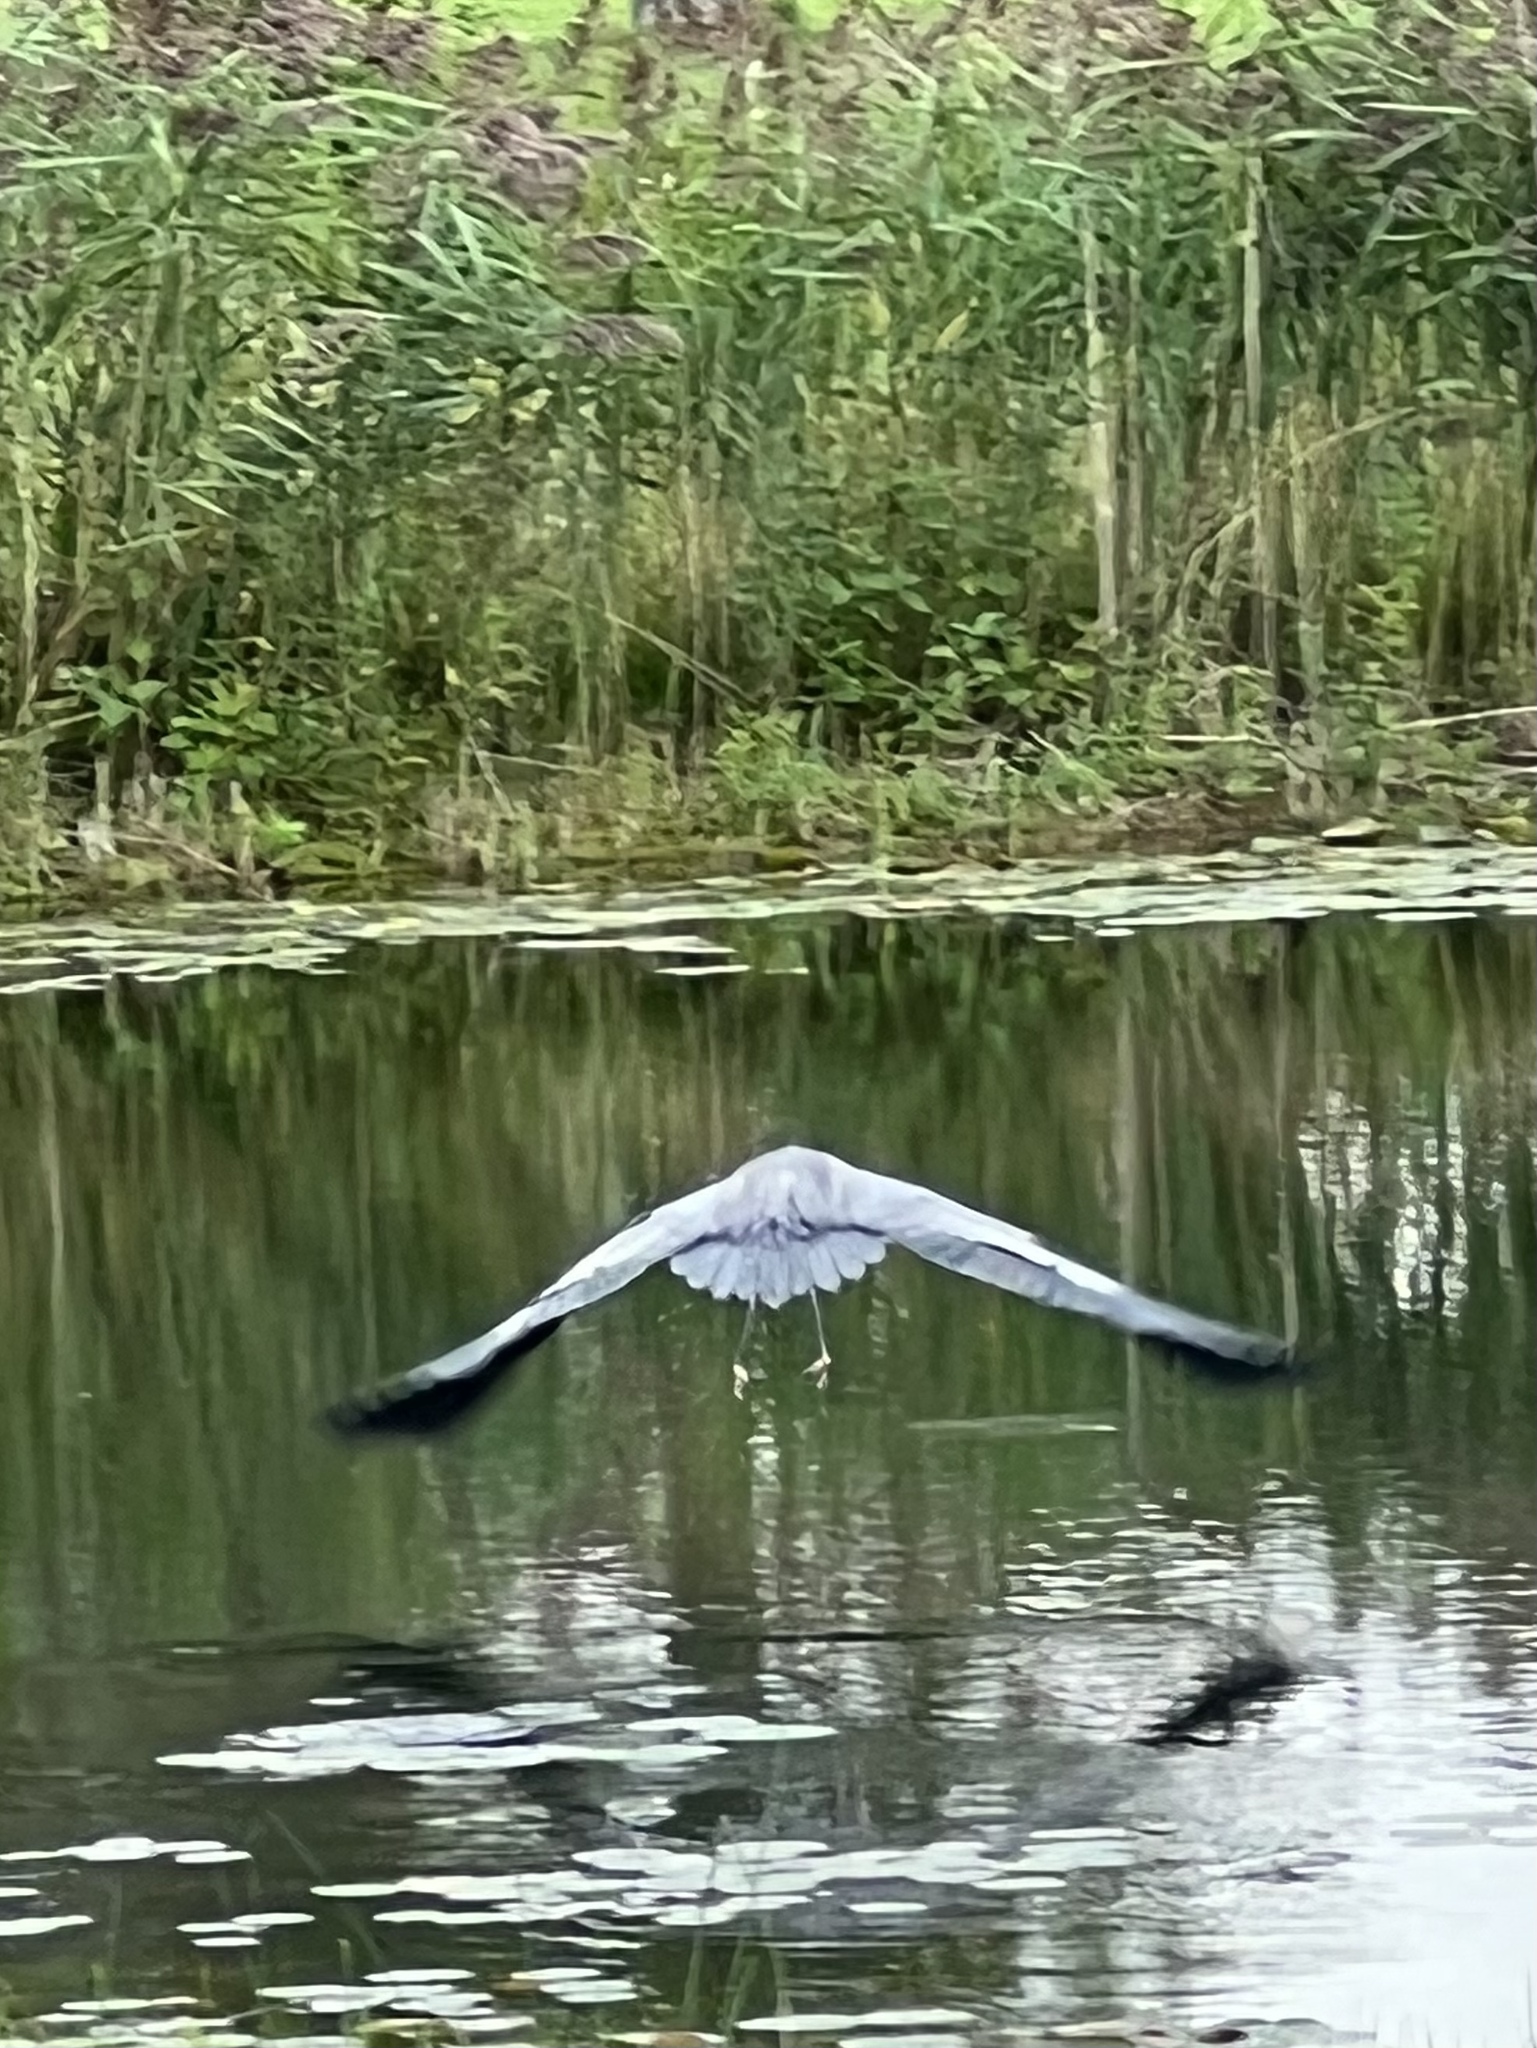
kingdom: Animalia
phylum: Chordata
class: Aves
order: Pelecaniformes
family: Ardeidae
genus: Ardea
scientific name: Ardea herodias
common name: Great blue heron
